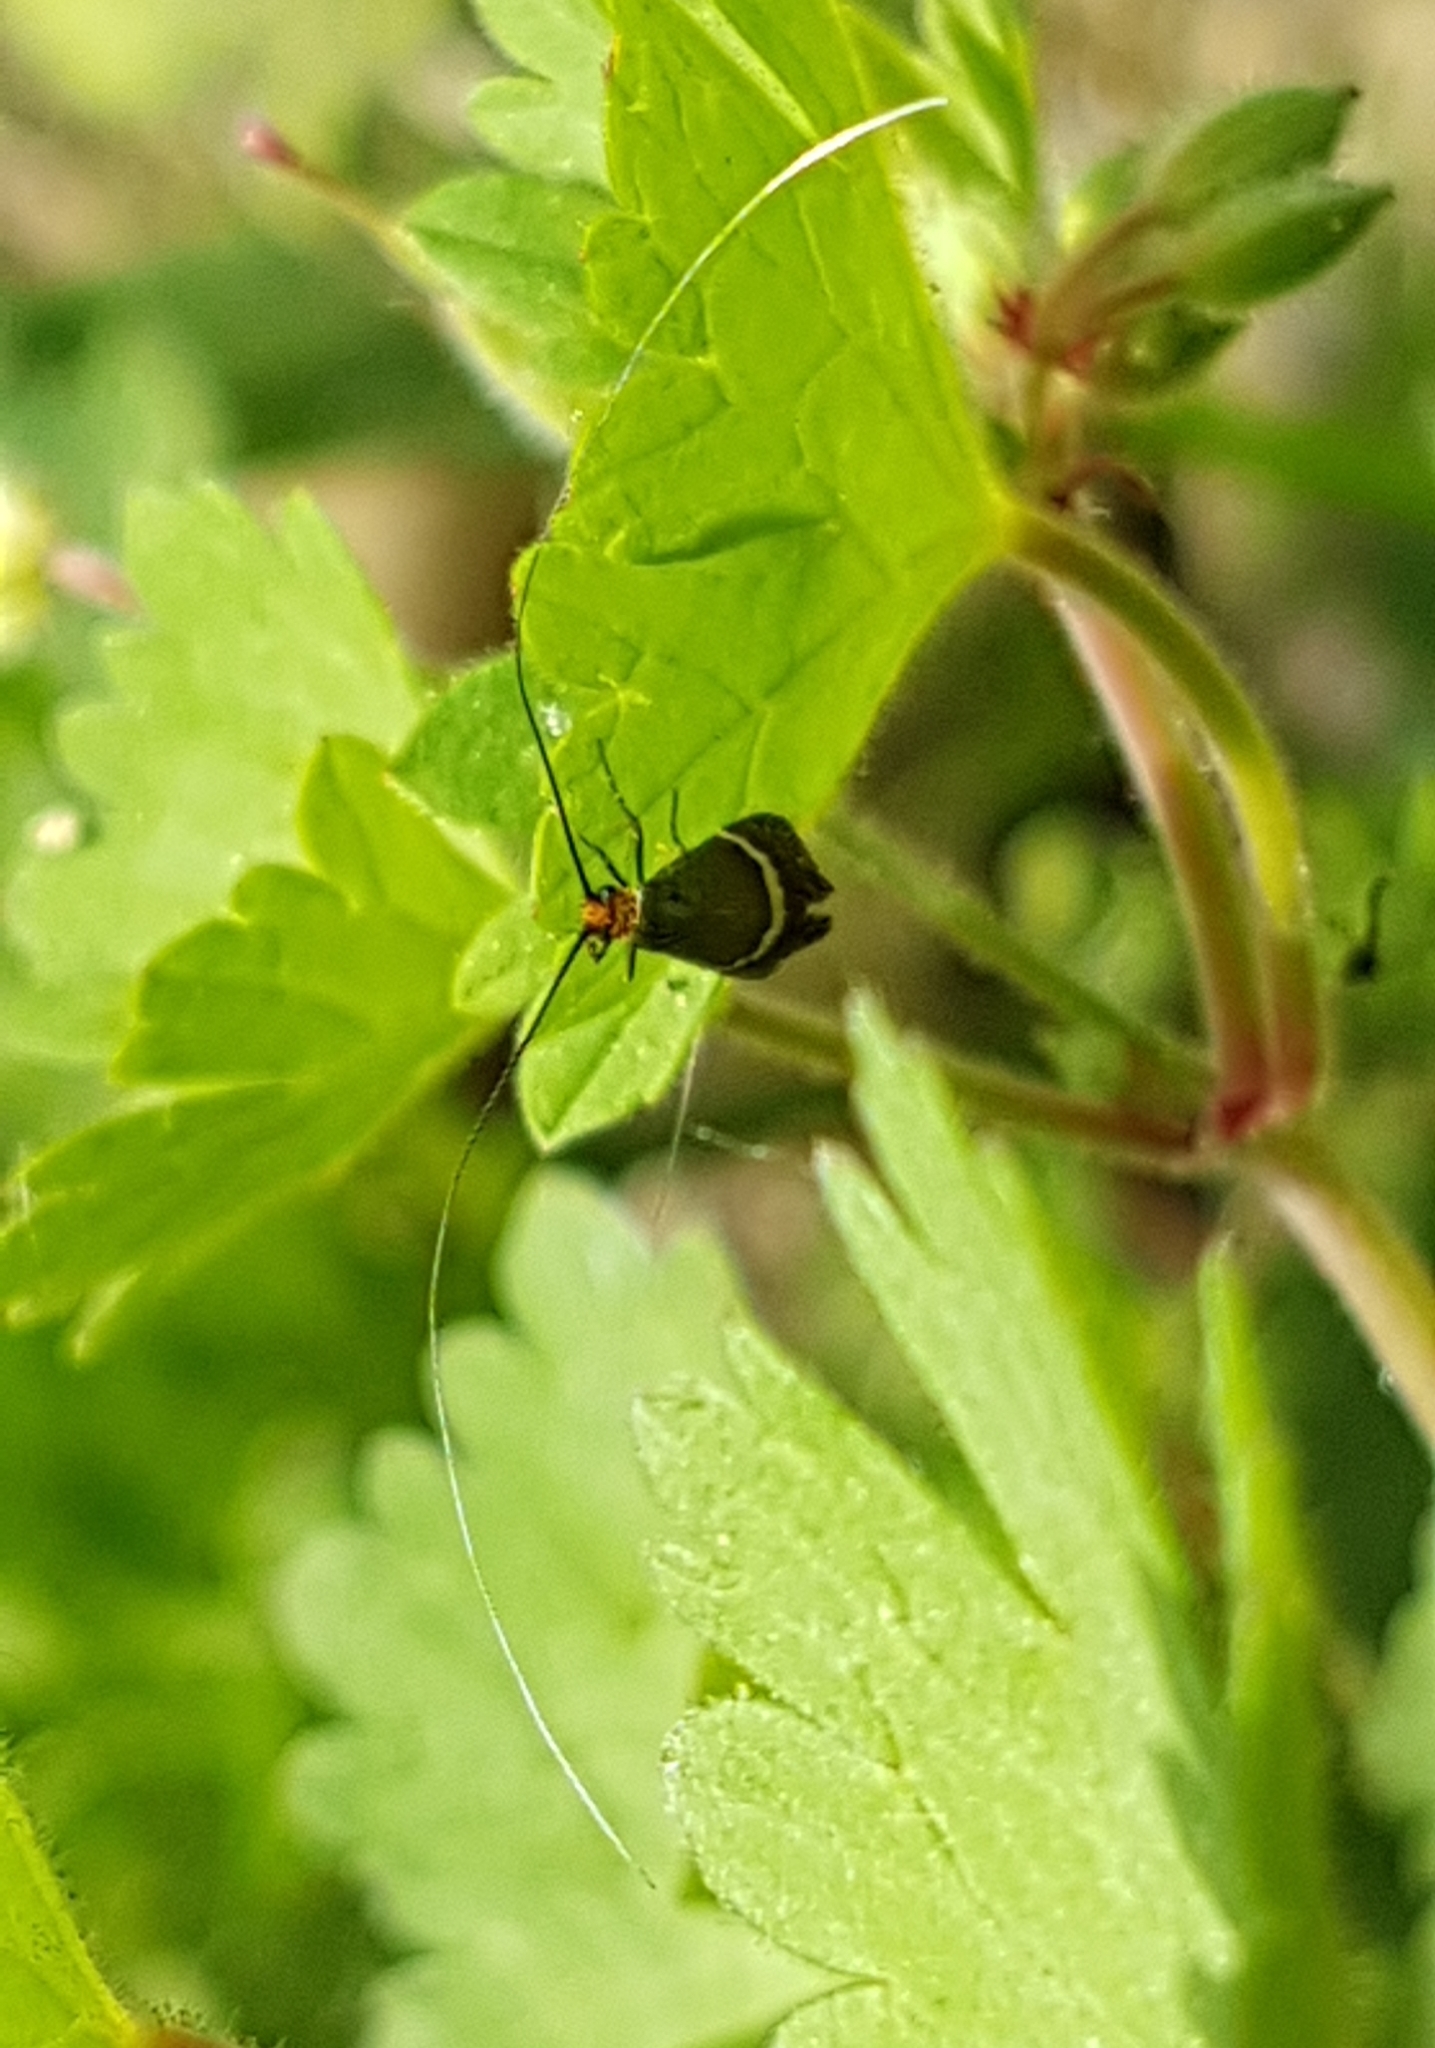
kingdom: Animalia
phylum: Arthropoda
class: Insecta
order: Lepidoptera
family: Adelidae
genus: Adela
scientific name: Adela australis
